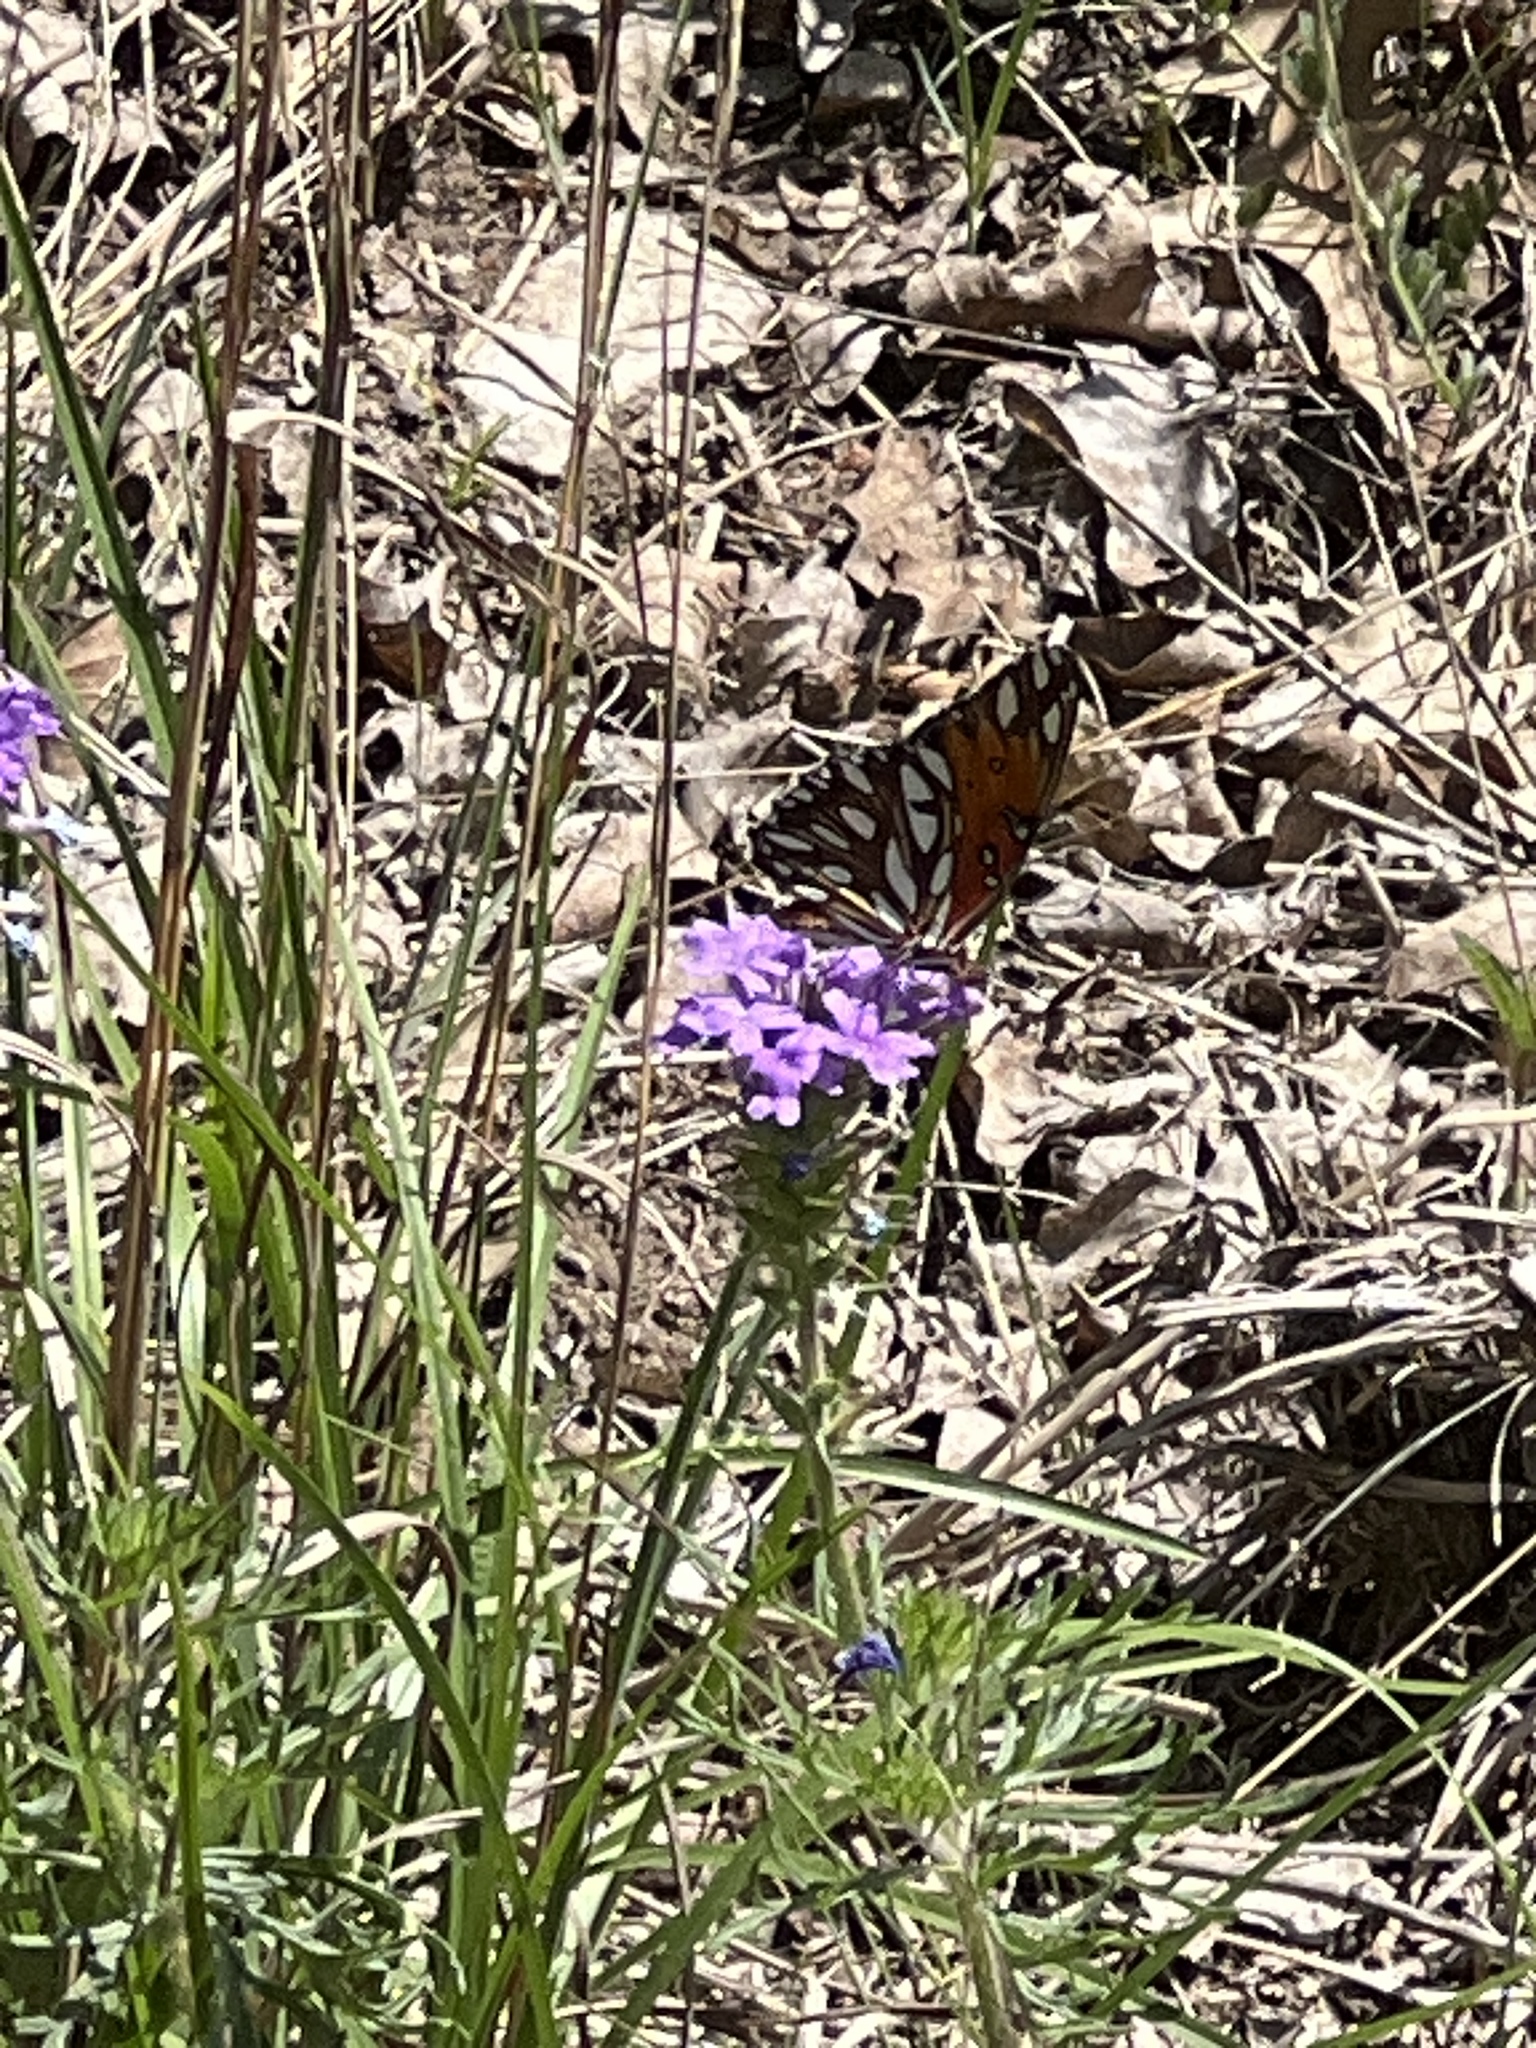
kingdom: Animalia
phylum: Arthropoda
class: Insecta
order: Lepidoptera
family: Nymphalidae
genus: Dione
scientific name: Dione vanillae
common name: Gulf fritillary
